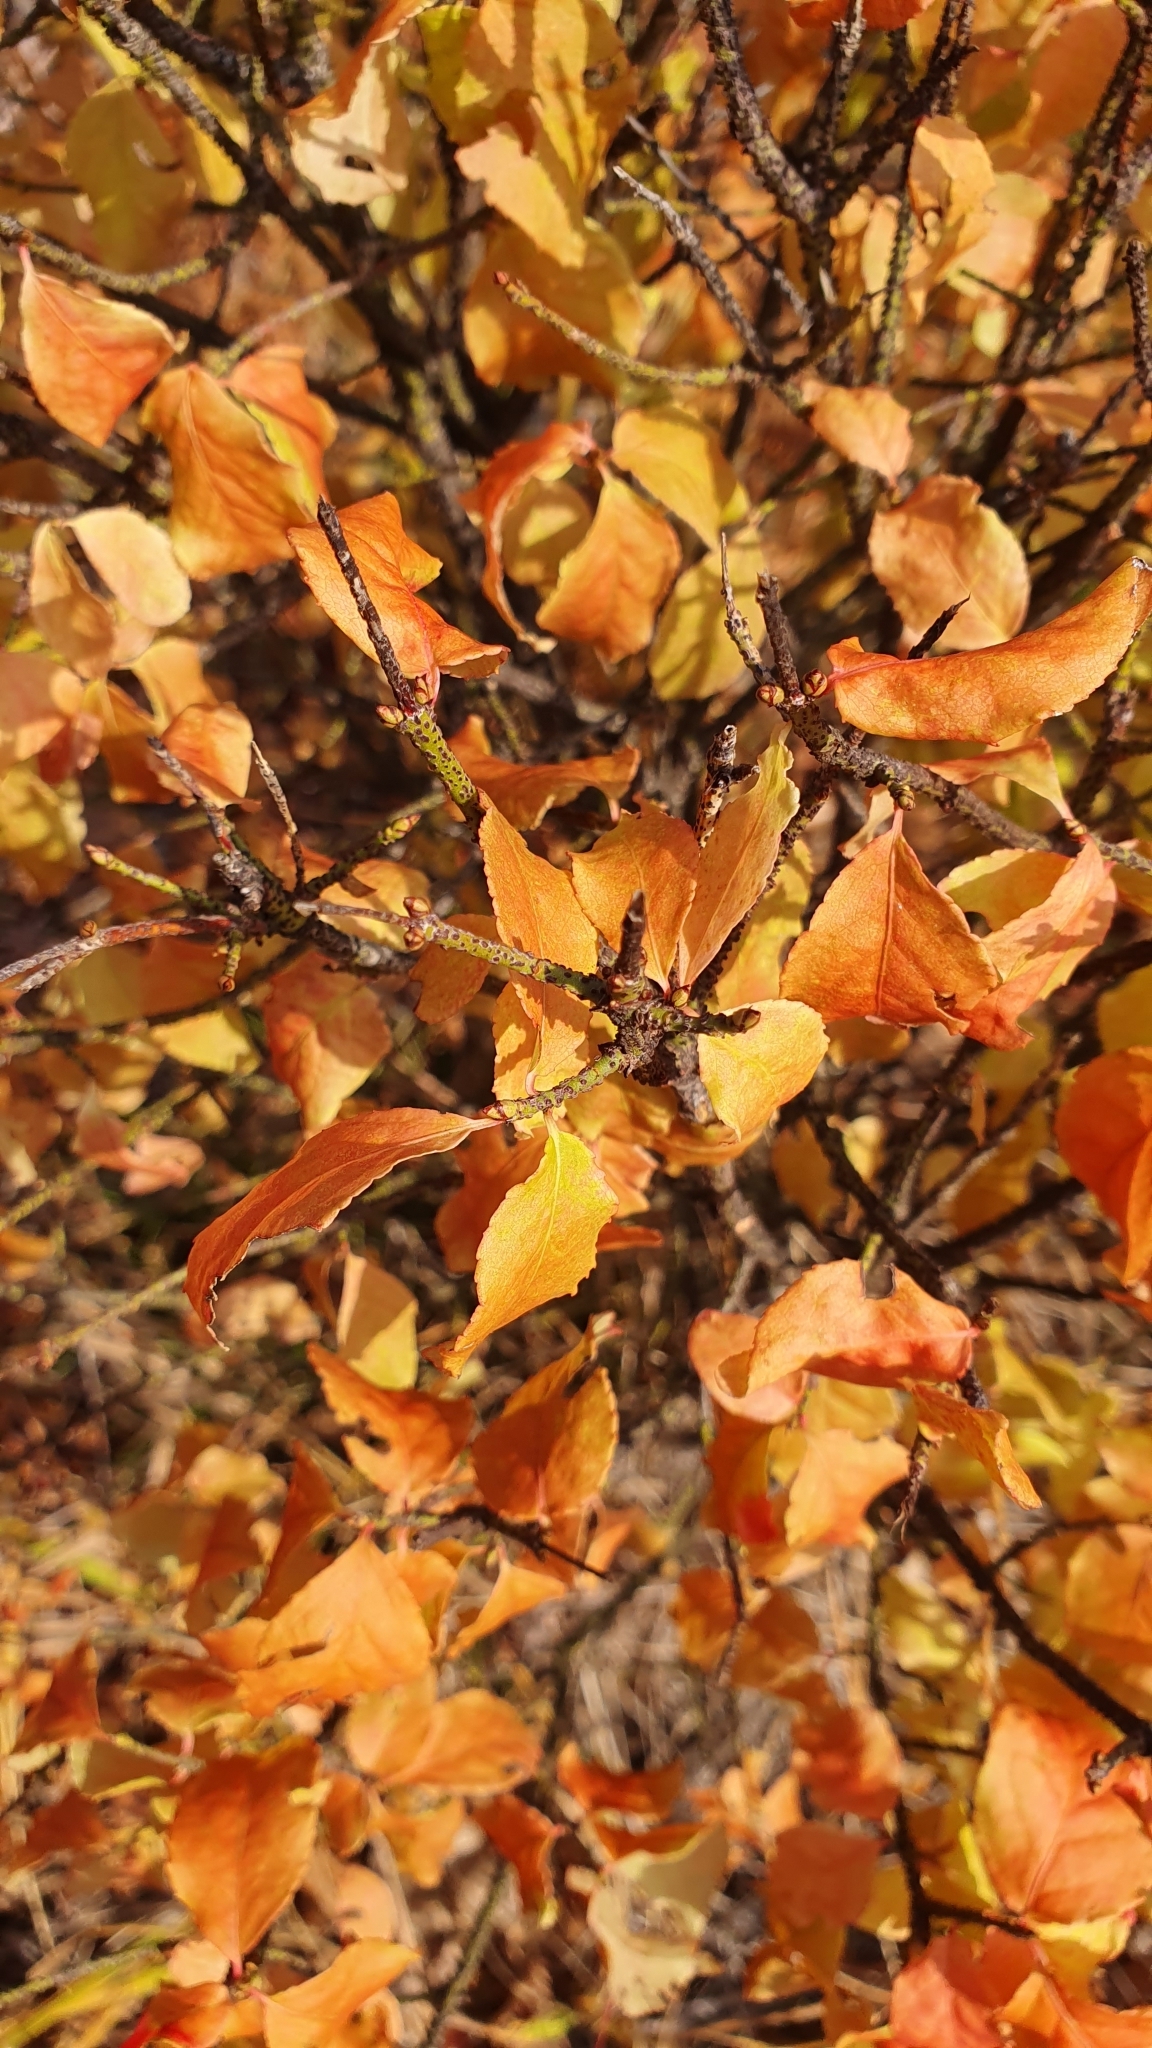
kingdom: Plantae
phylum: Tracheophyta
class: Magnoliopsida
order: Celastrales
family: Celastraceae
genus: Euonymus
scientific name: Euonymus verrucosus
